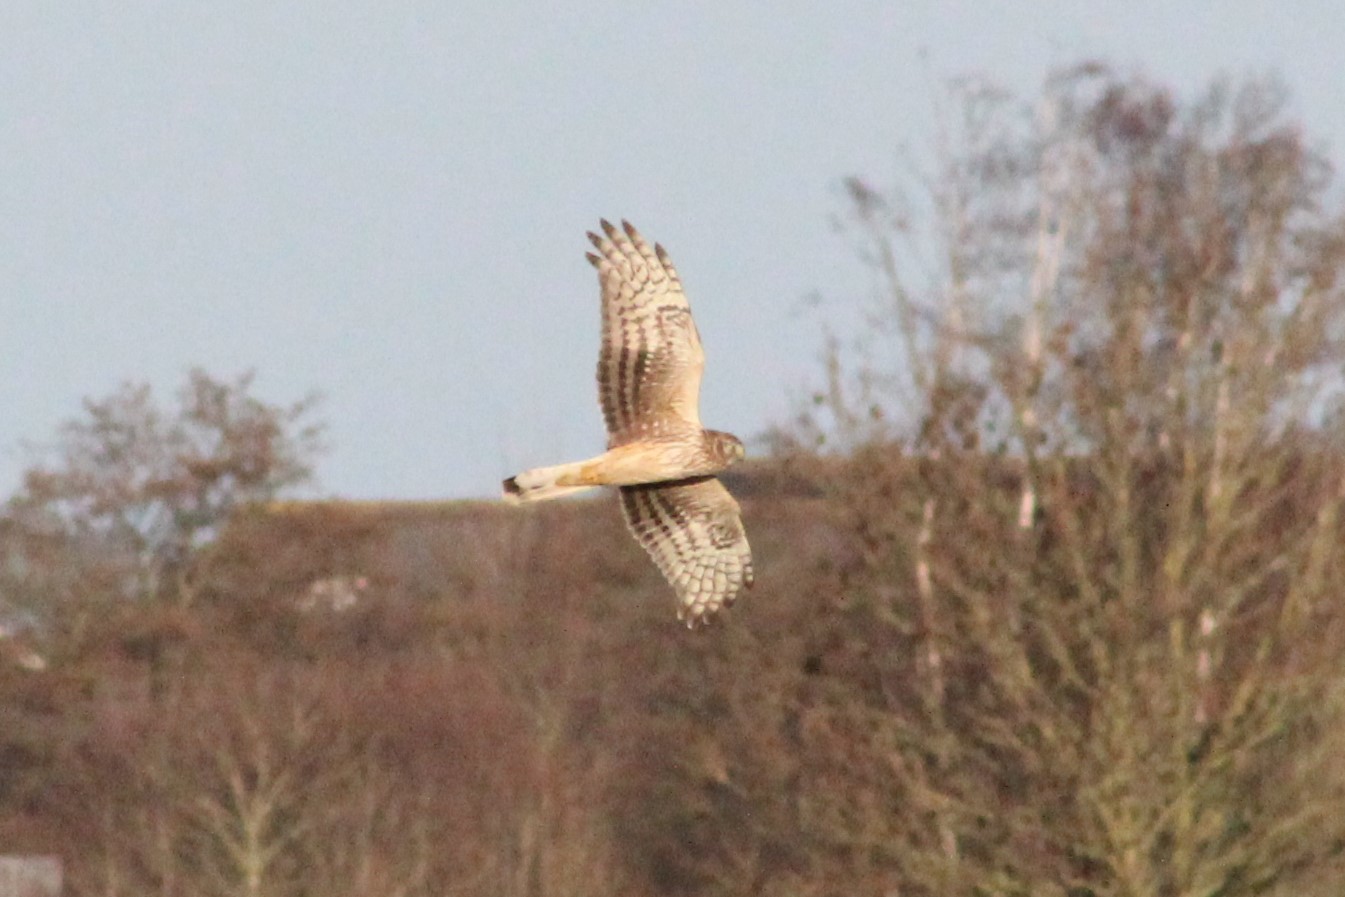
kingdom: Animalia
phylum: Chordata
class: Aves
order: Accipitriformes
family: Accipitridae
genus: Circus
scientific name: Circus cyaneus
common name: Hen harrier
